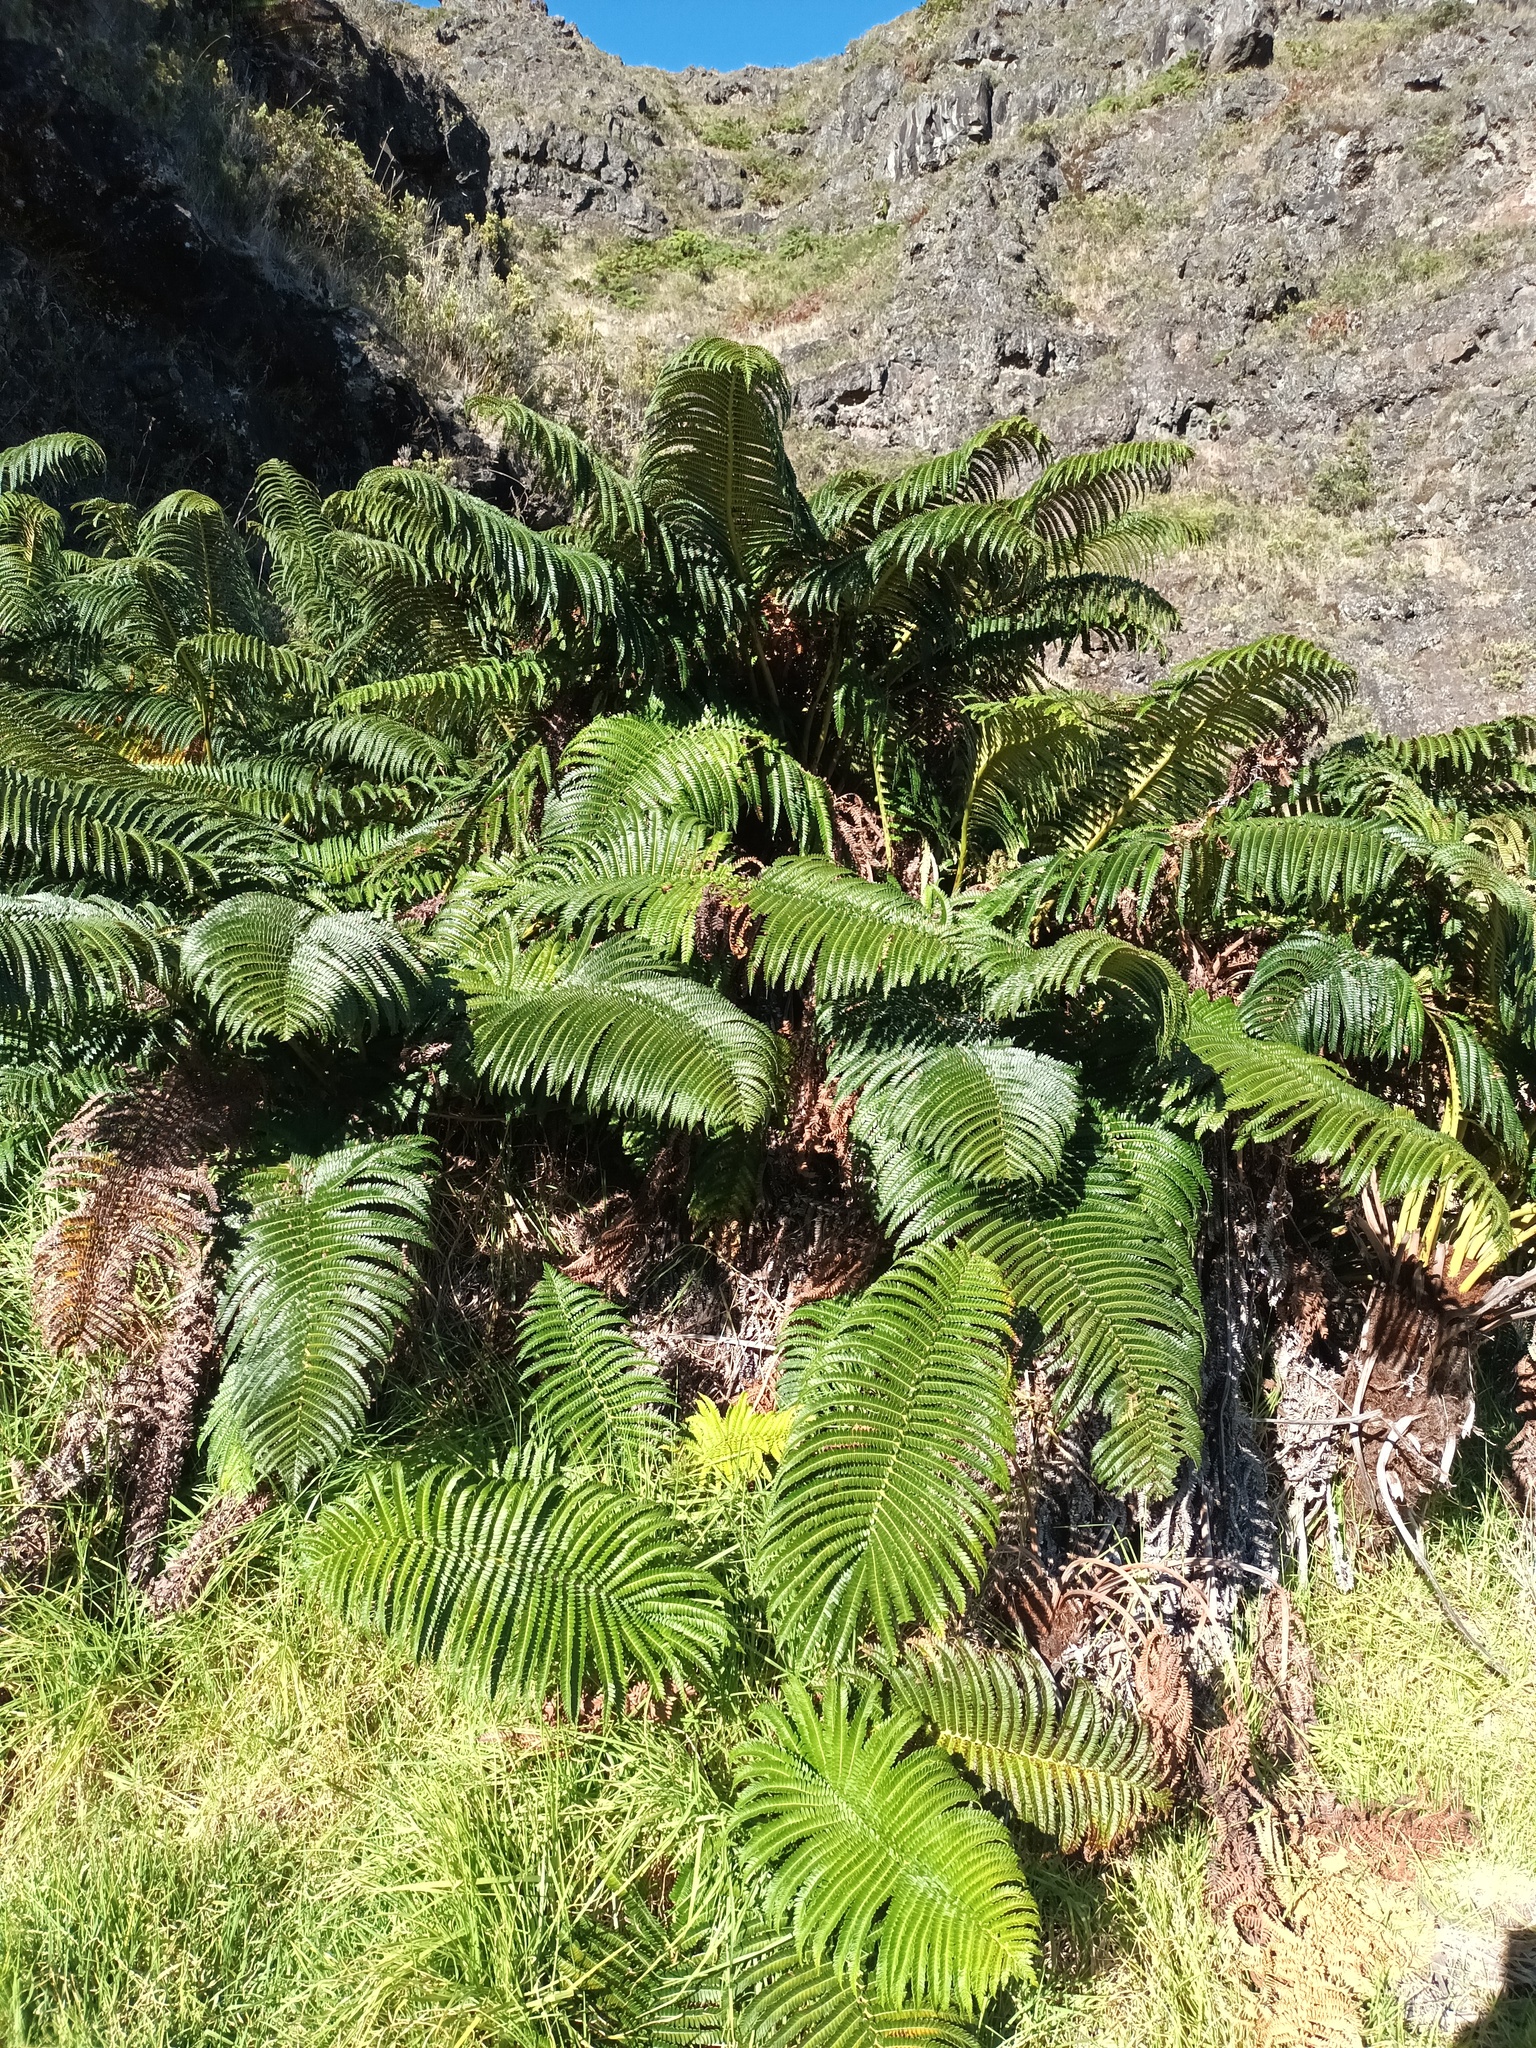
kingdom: Plantae
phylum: Tracheophyta
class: Polypodiopsida
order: Polypodiales
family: Blechnaceae
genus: Sadleria
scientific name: Sadleria cyatheoides
